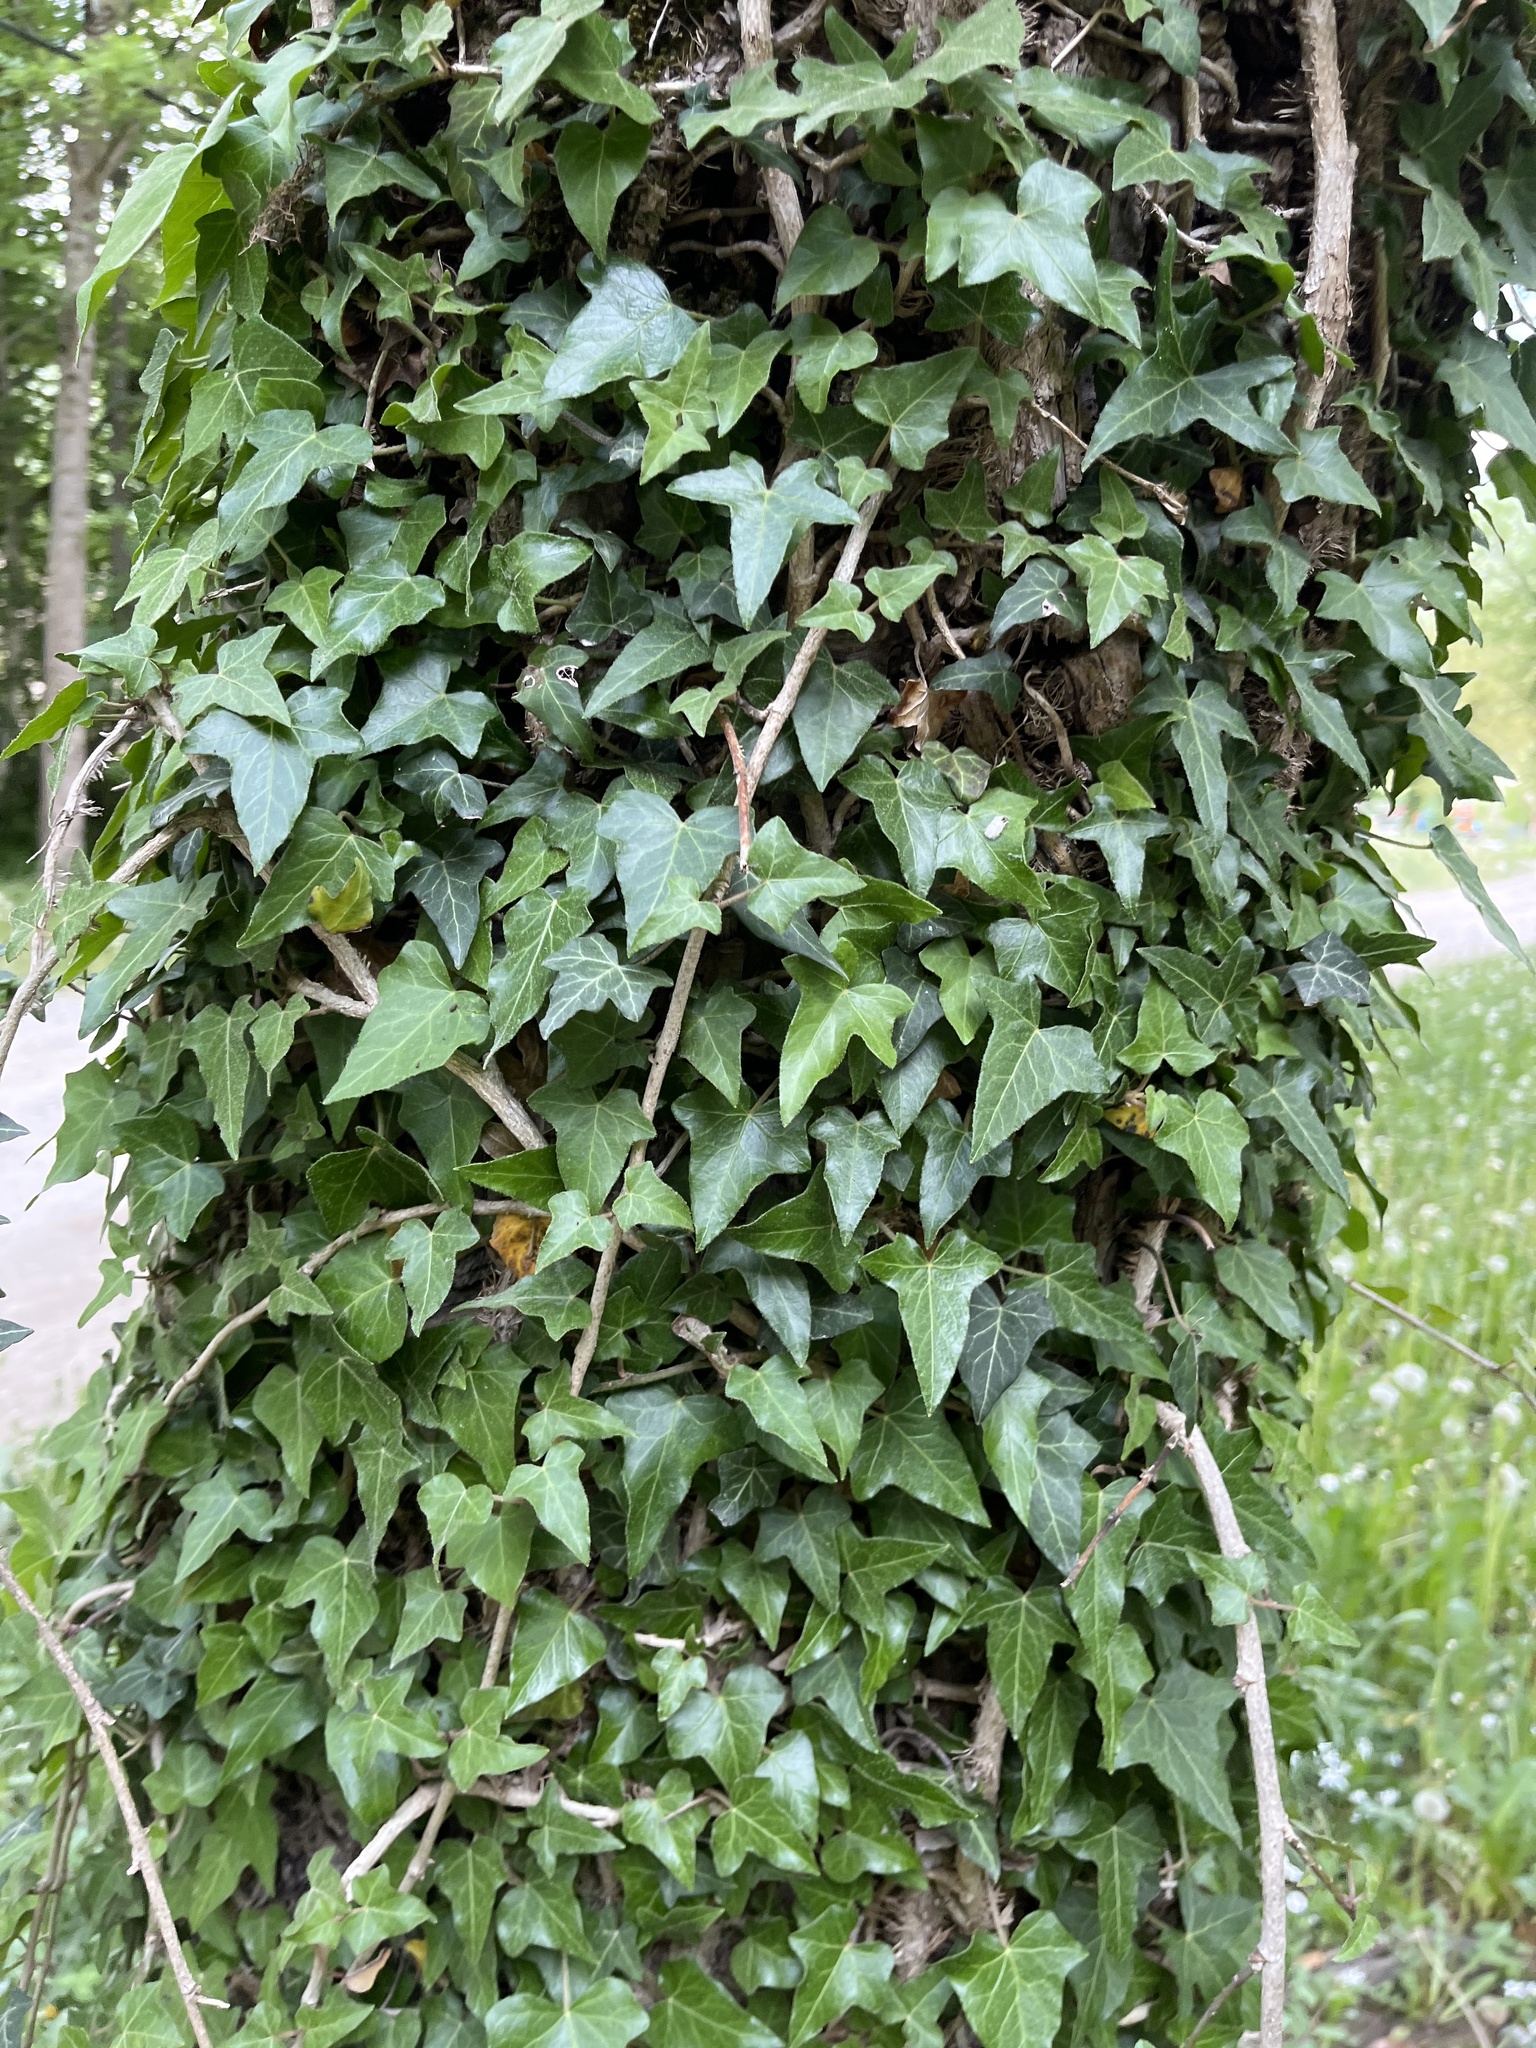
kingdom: Plantae
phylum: Tracheophyta
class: Magnoliopsida
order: Apiales
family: Araliaceae
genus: Hedera
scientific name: Hedera helix
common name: Ivy
